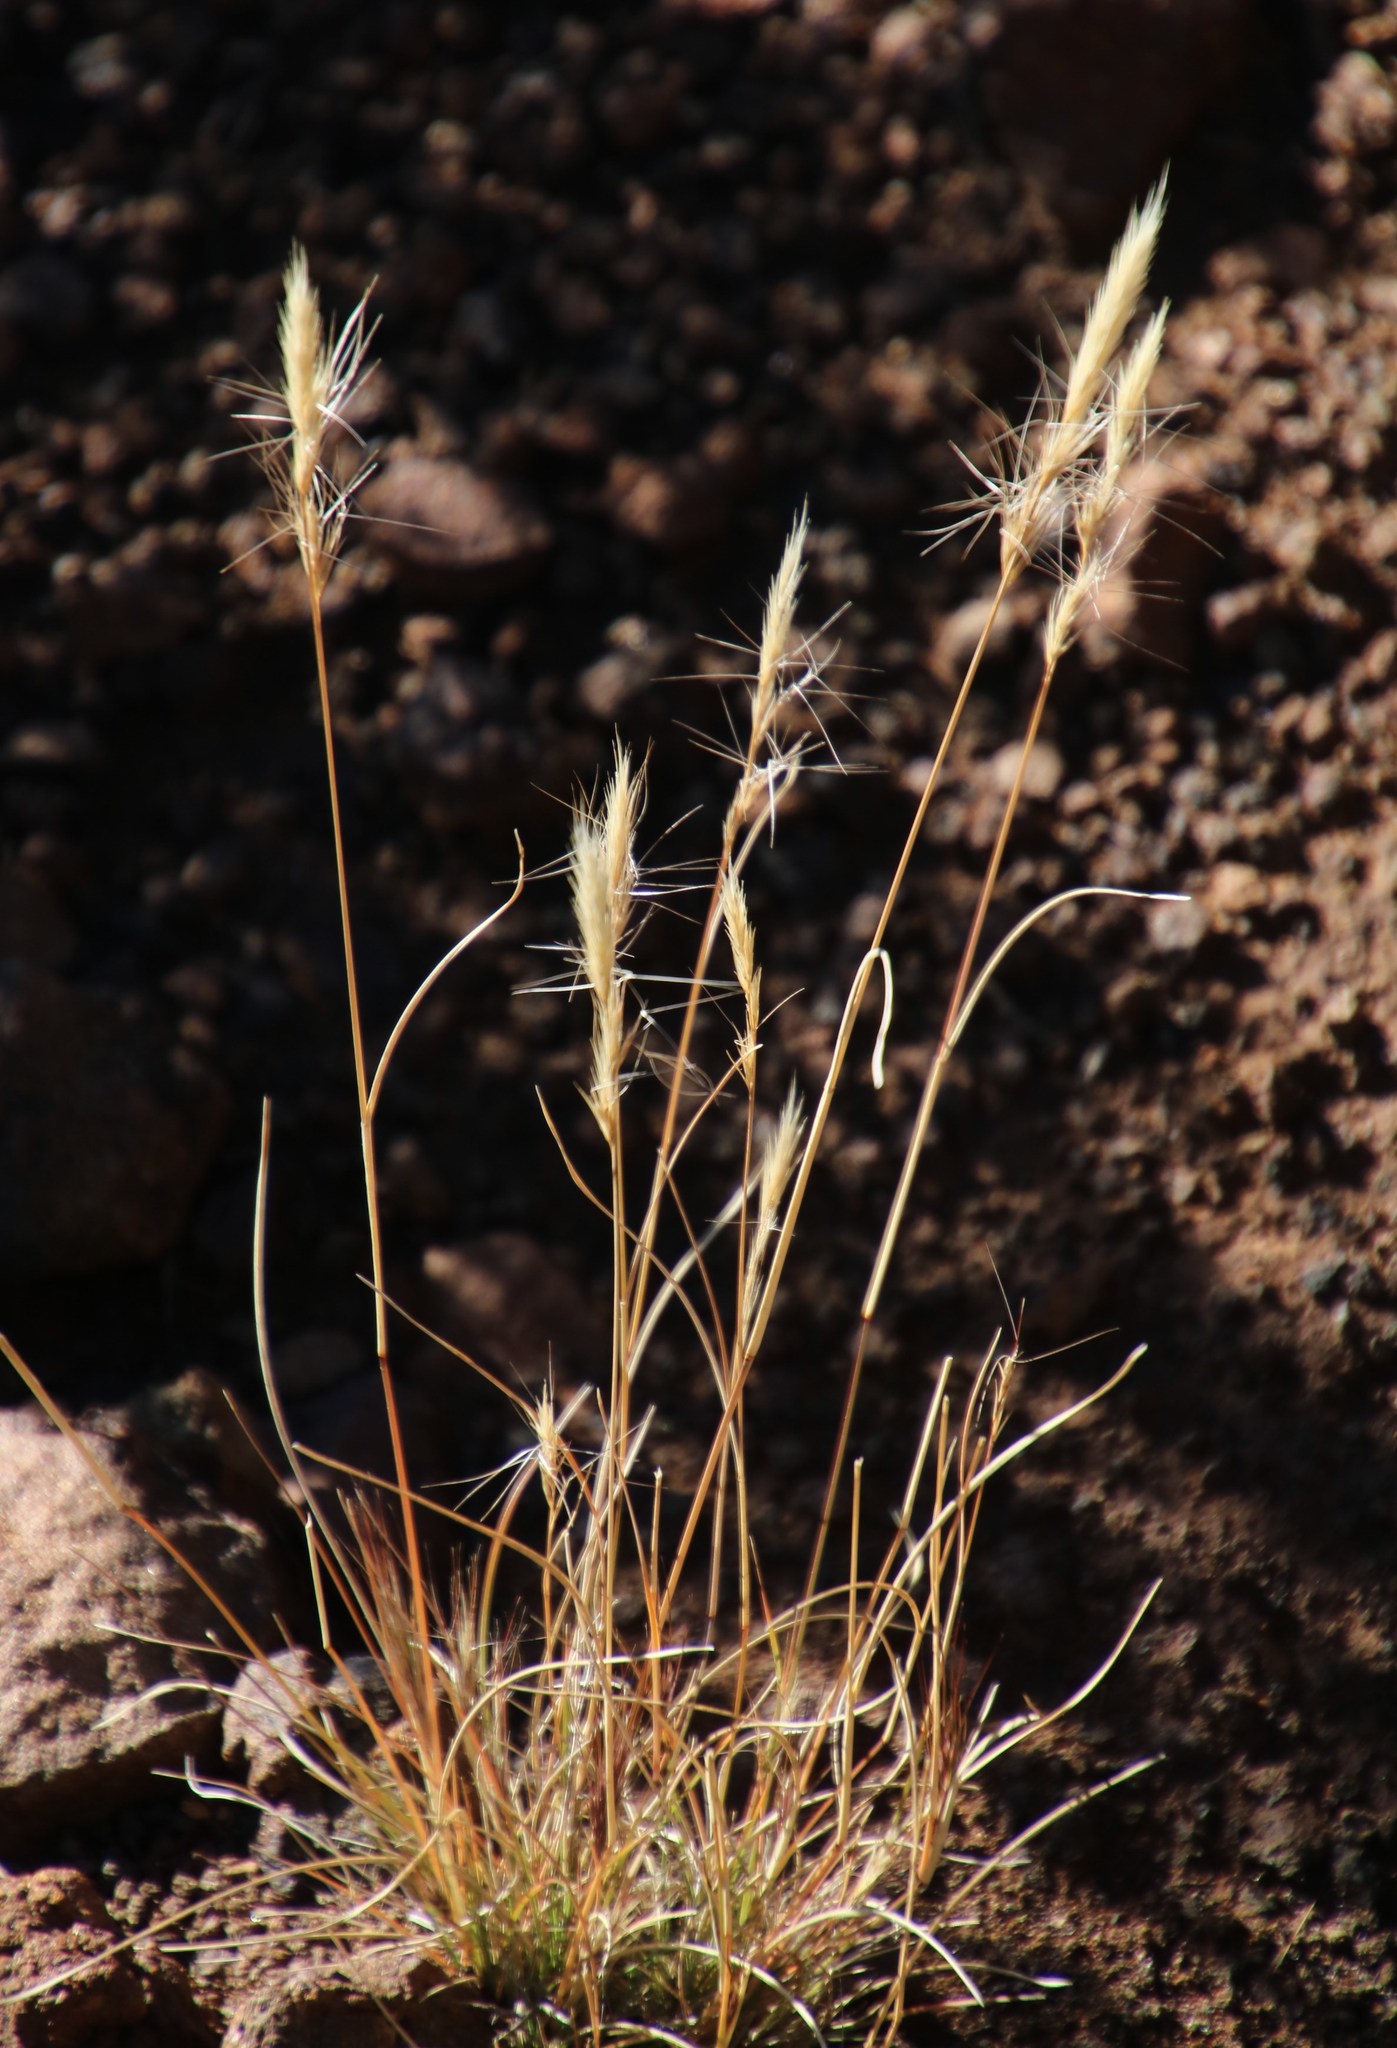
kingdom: Plantae
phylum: Tracheophyta
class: Liliopsida
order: Poales
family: Poaceae
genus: Aristida
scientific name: Aristida congesta
